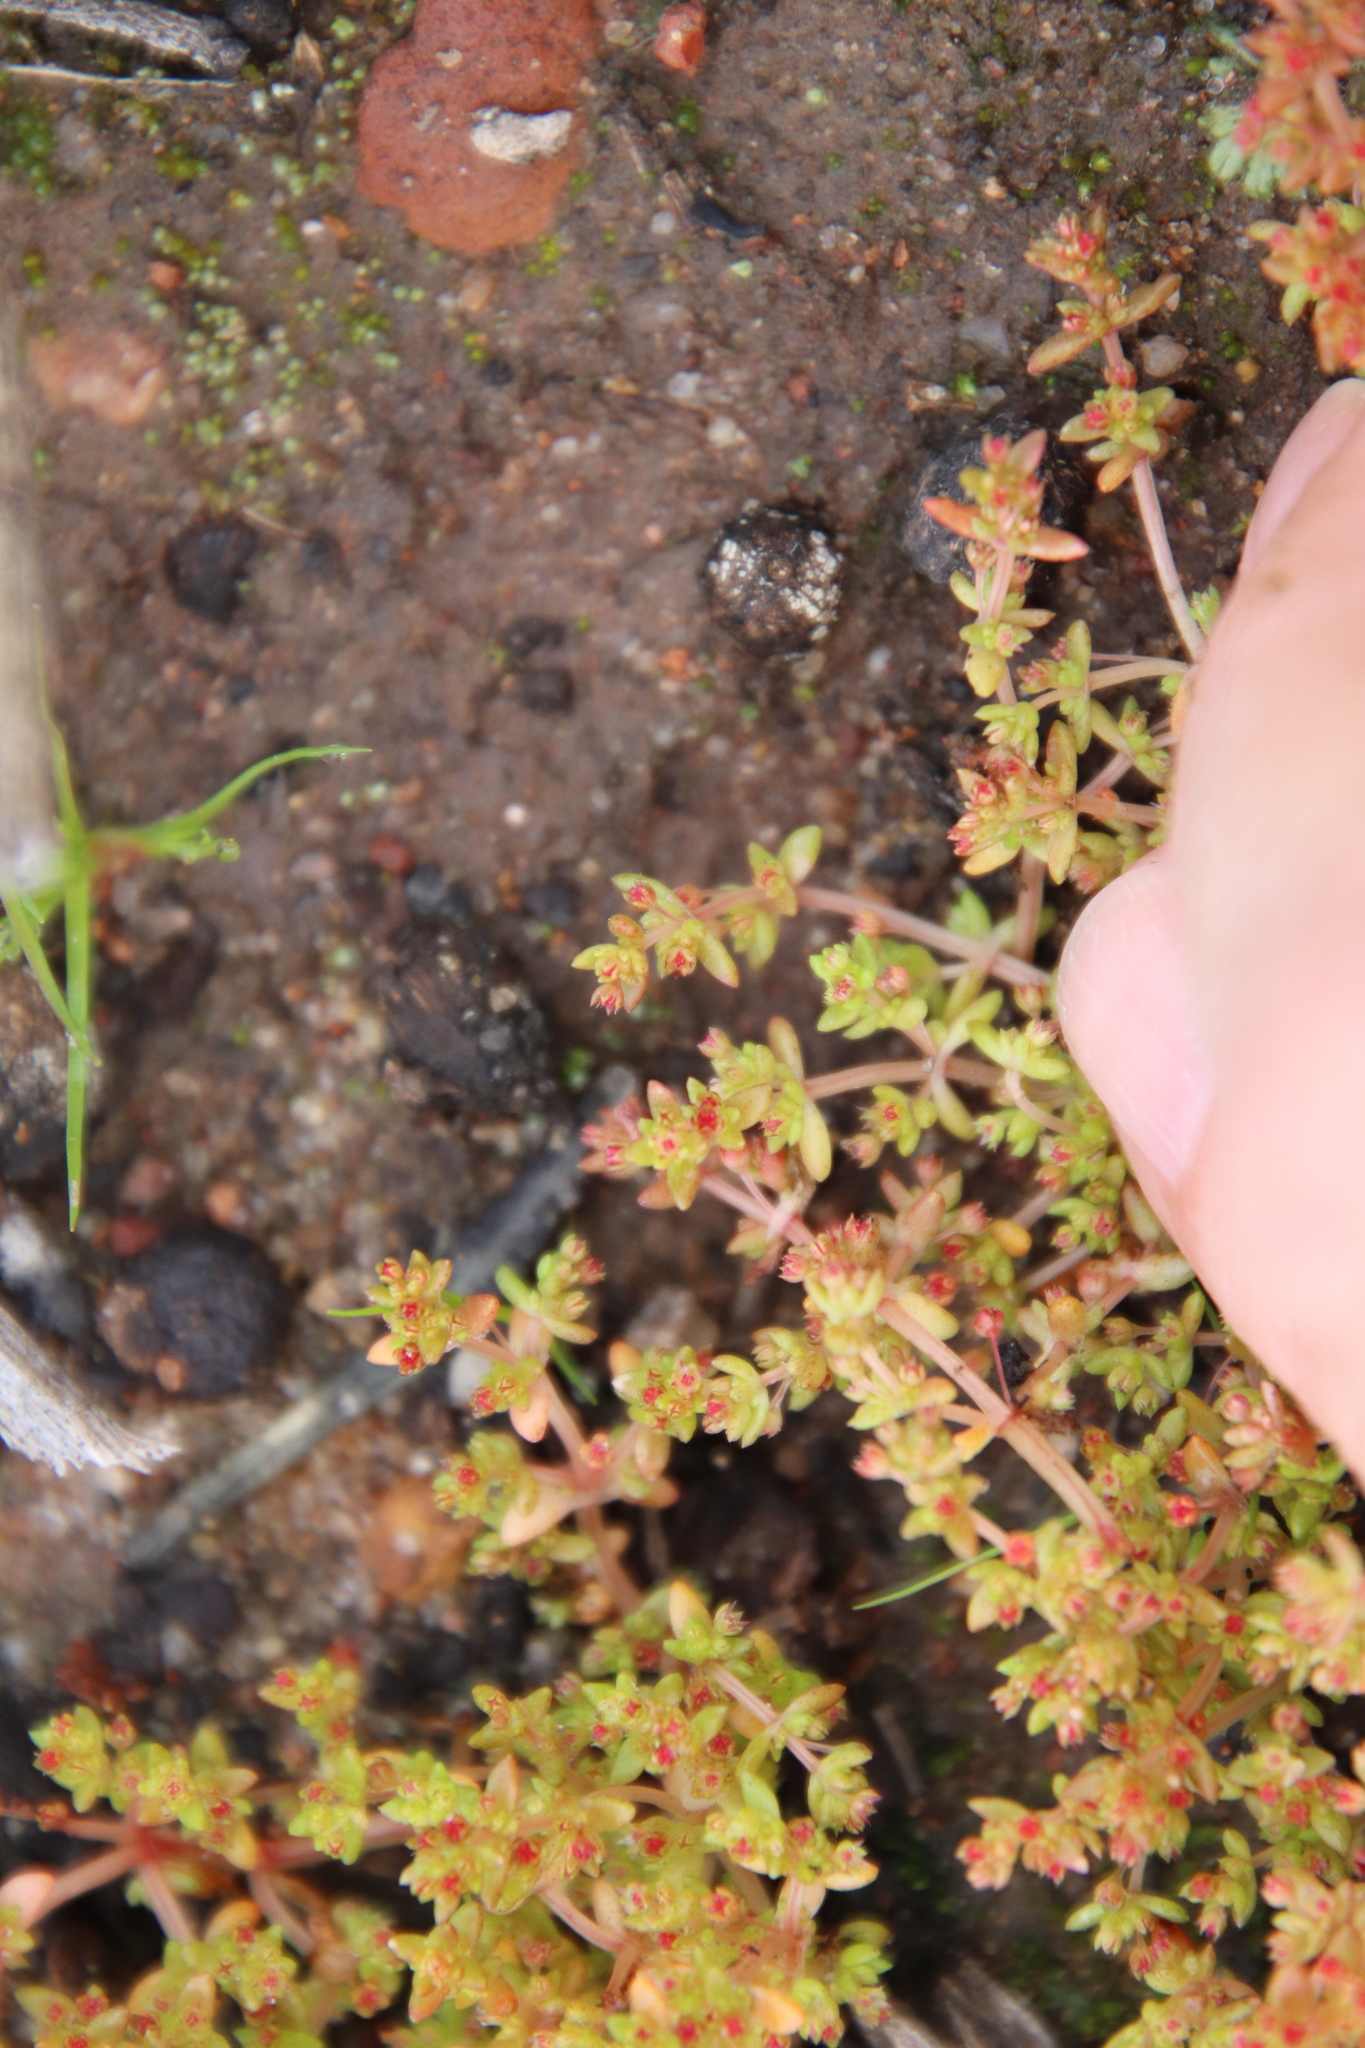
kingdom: Plantae
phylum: Tracheophyta
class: Magnoliopsida
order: Saxifragales
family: Crassulaceae
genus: Crassula
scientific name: Crassula connata
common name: Erect pygmyweed
